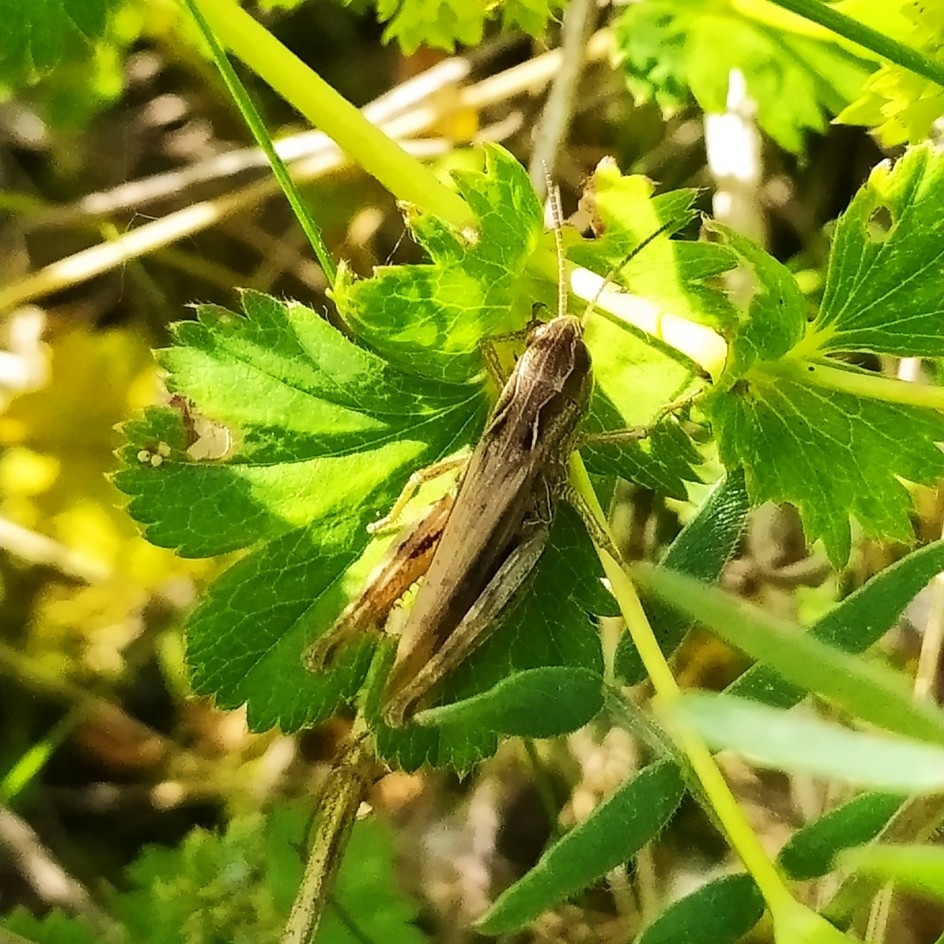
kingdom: Animalia
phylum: Arthropoda
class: Insecta
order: Orthoptera
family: Acrididae
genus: Chorthippus
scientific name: Chorthippus apricarius
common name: Upland field grasshopper
